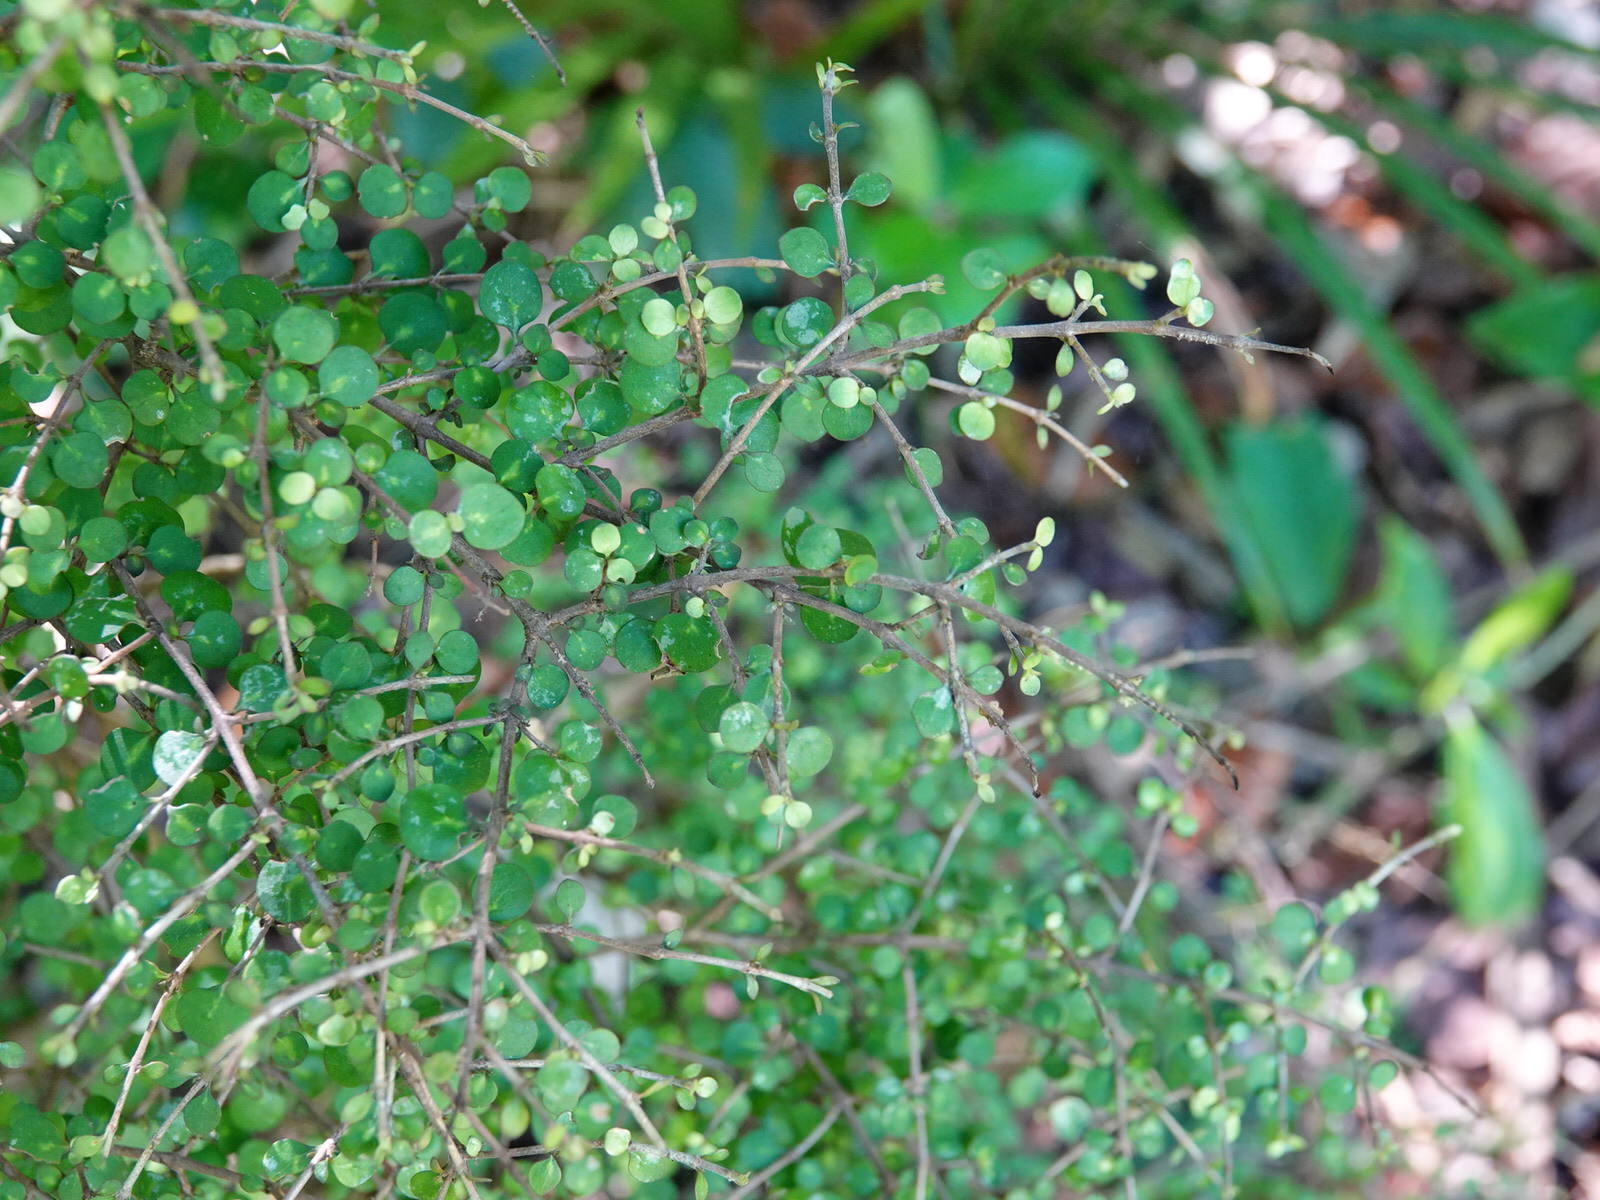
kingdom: Plantae
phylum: Tracheophyta
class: Magnoliopsida
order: Gentianales
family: Rubiaceae
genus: Coprosma
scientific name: Coprosma rhamnoides
